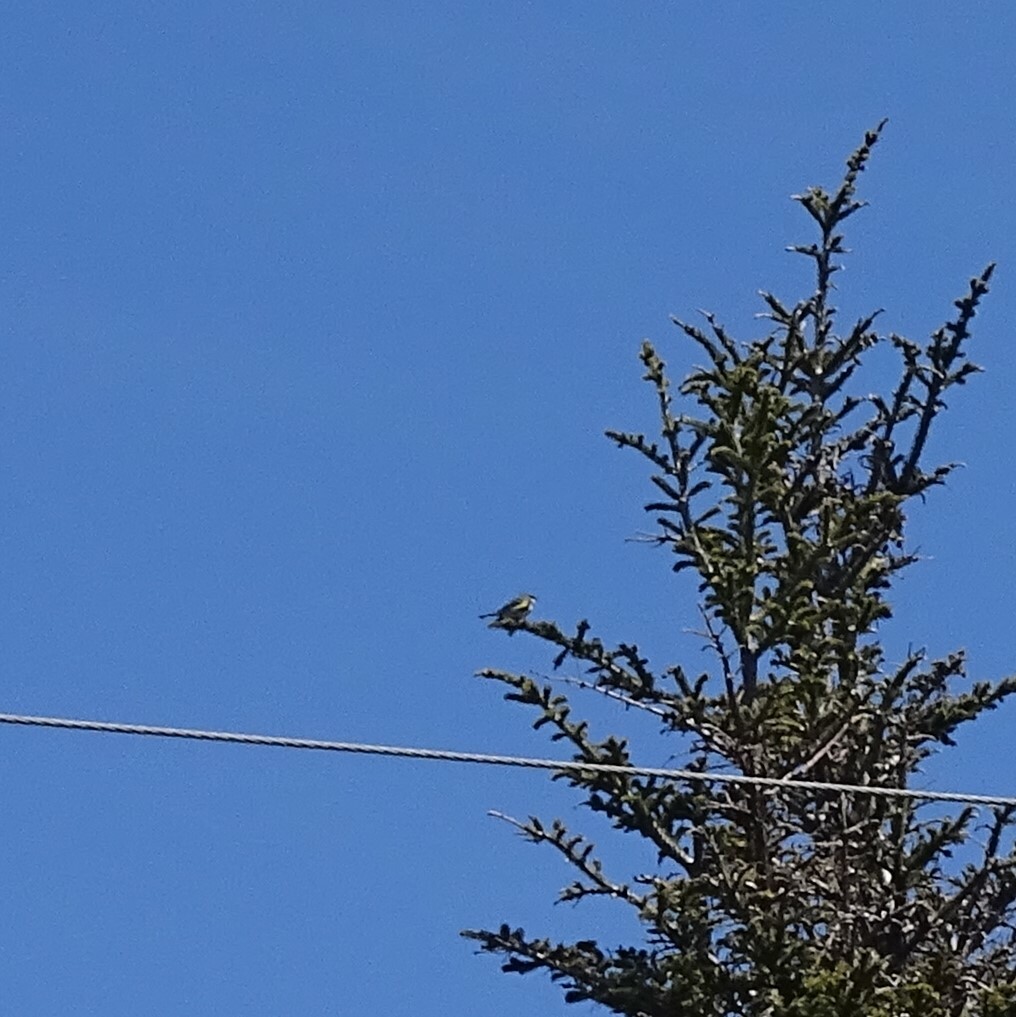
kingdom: Animalia
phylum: Chordata
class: Aves
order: Passeriformes
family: Parulidae
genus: Setophaga
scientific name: Setophaga coronata
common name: Myrtle warbler
